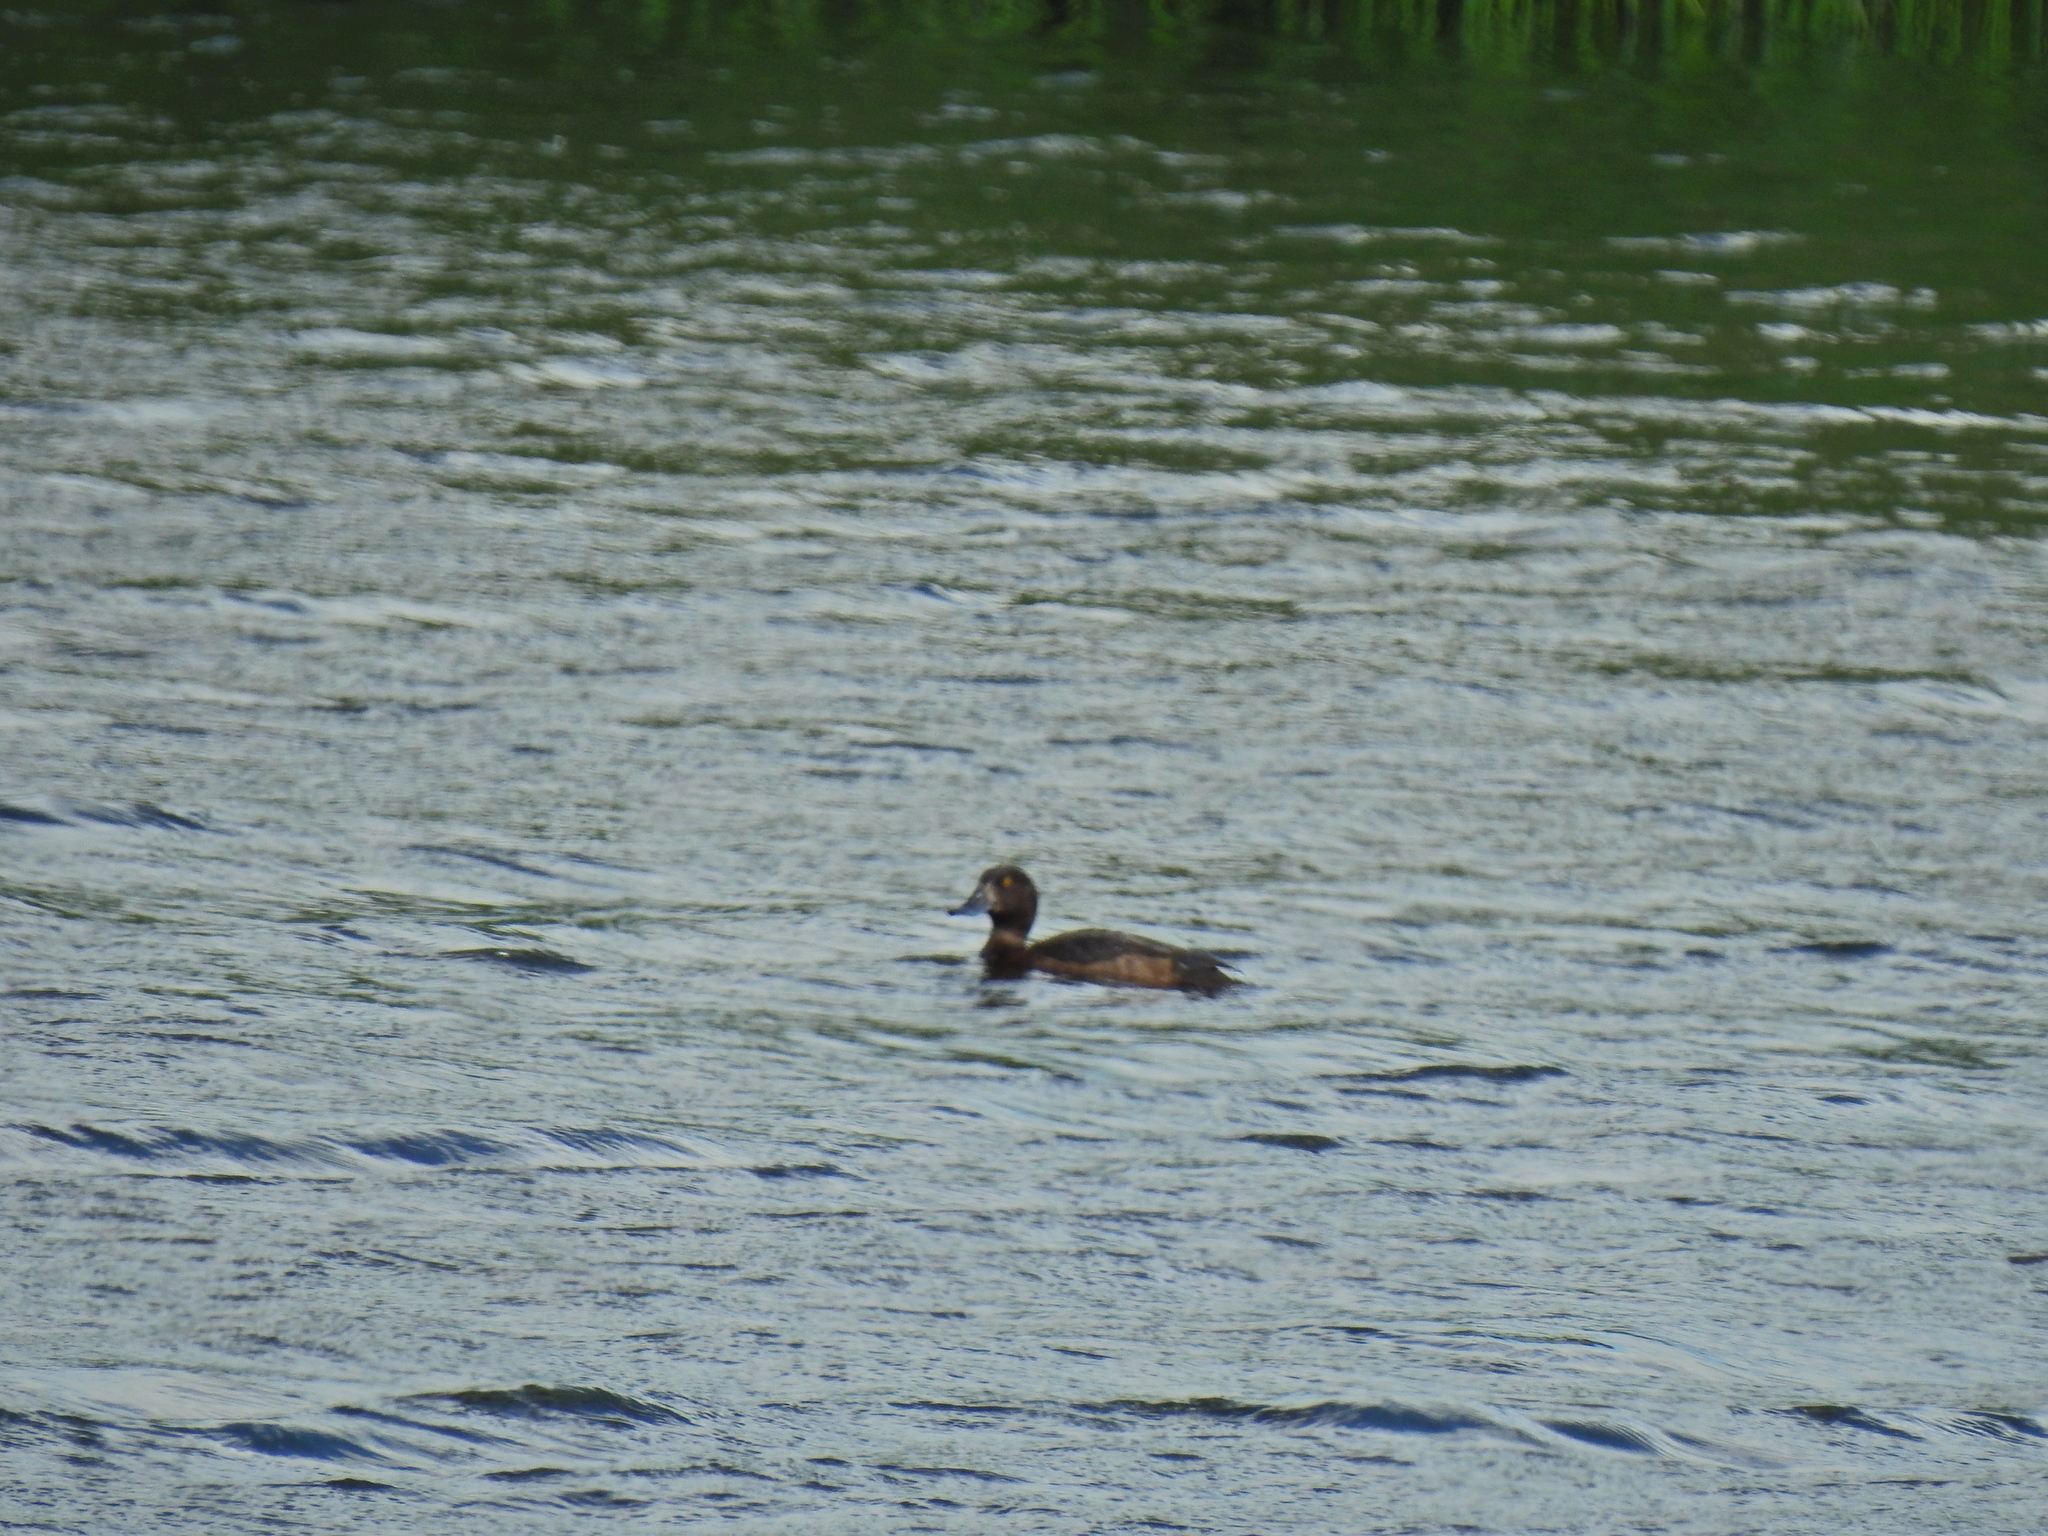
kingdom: Animalia
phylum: Chordata
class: Aves
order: Anseriformes
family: Anatidae
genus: Aythya
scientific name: Aythya fuligula
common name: Tufted duck
